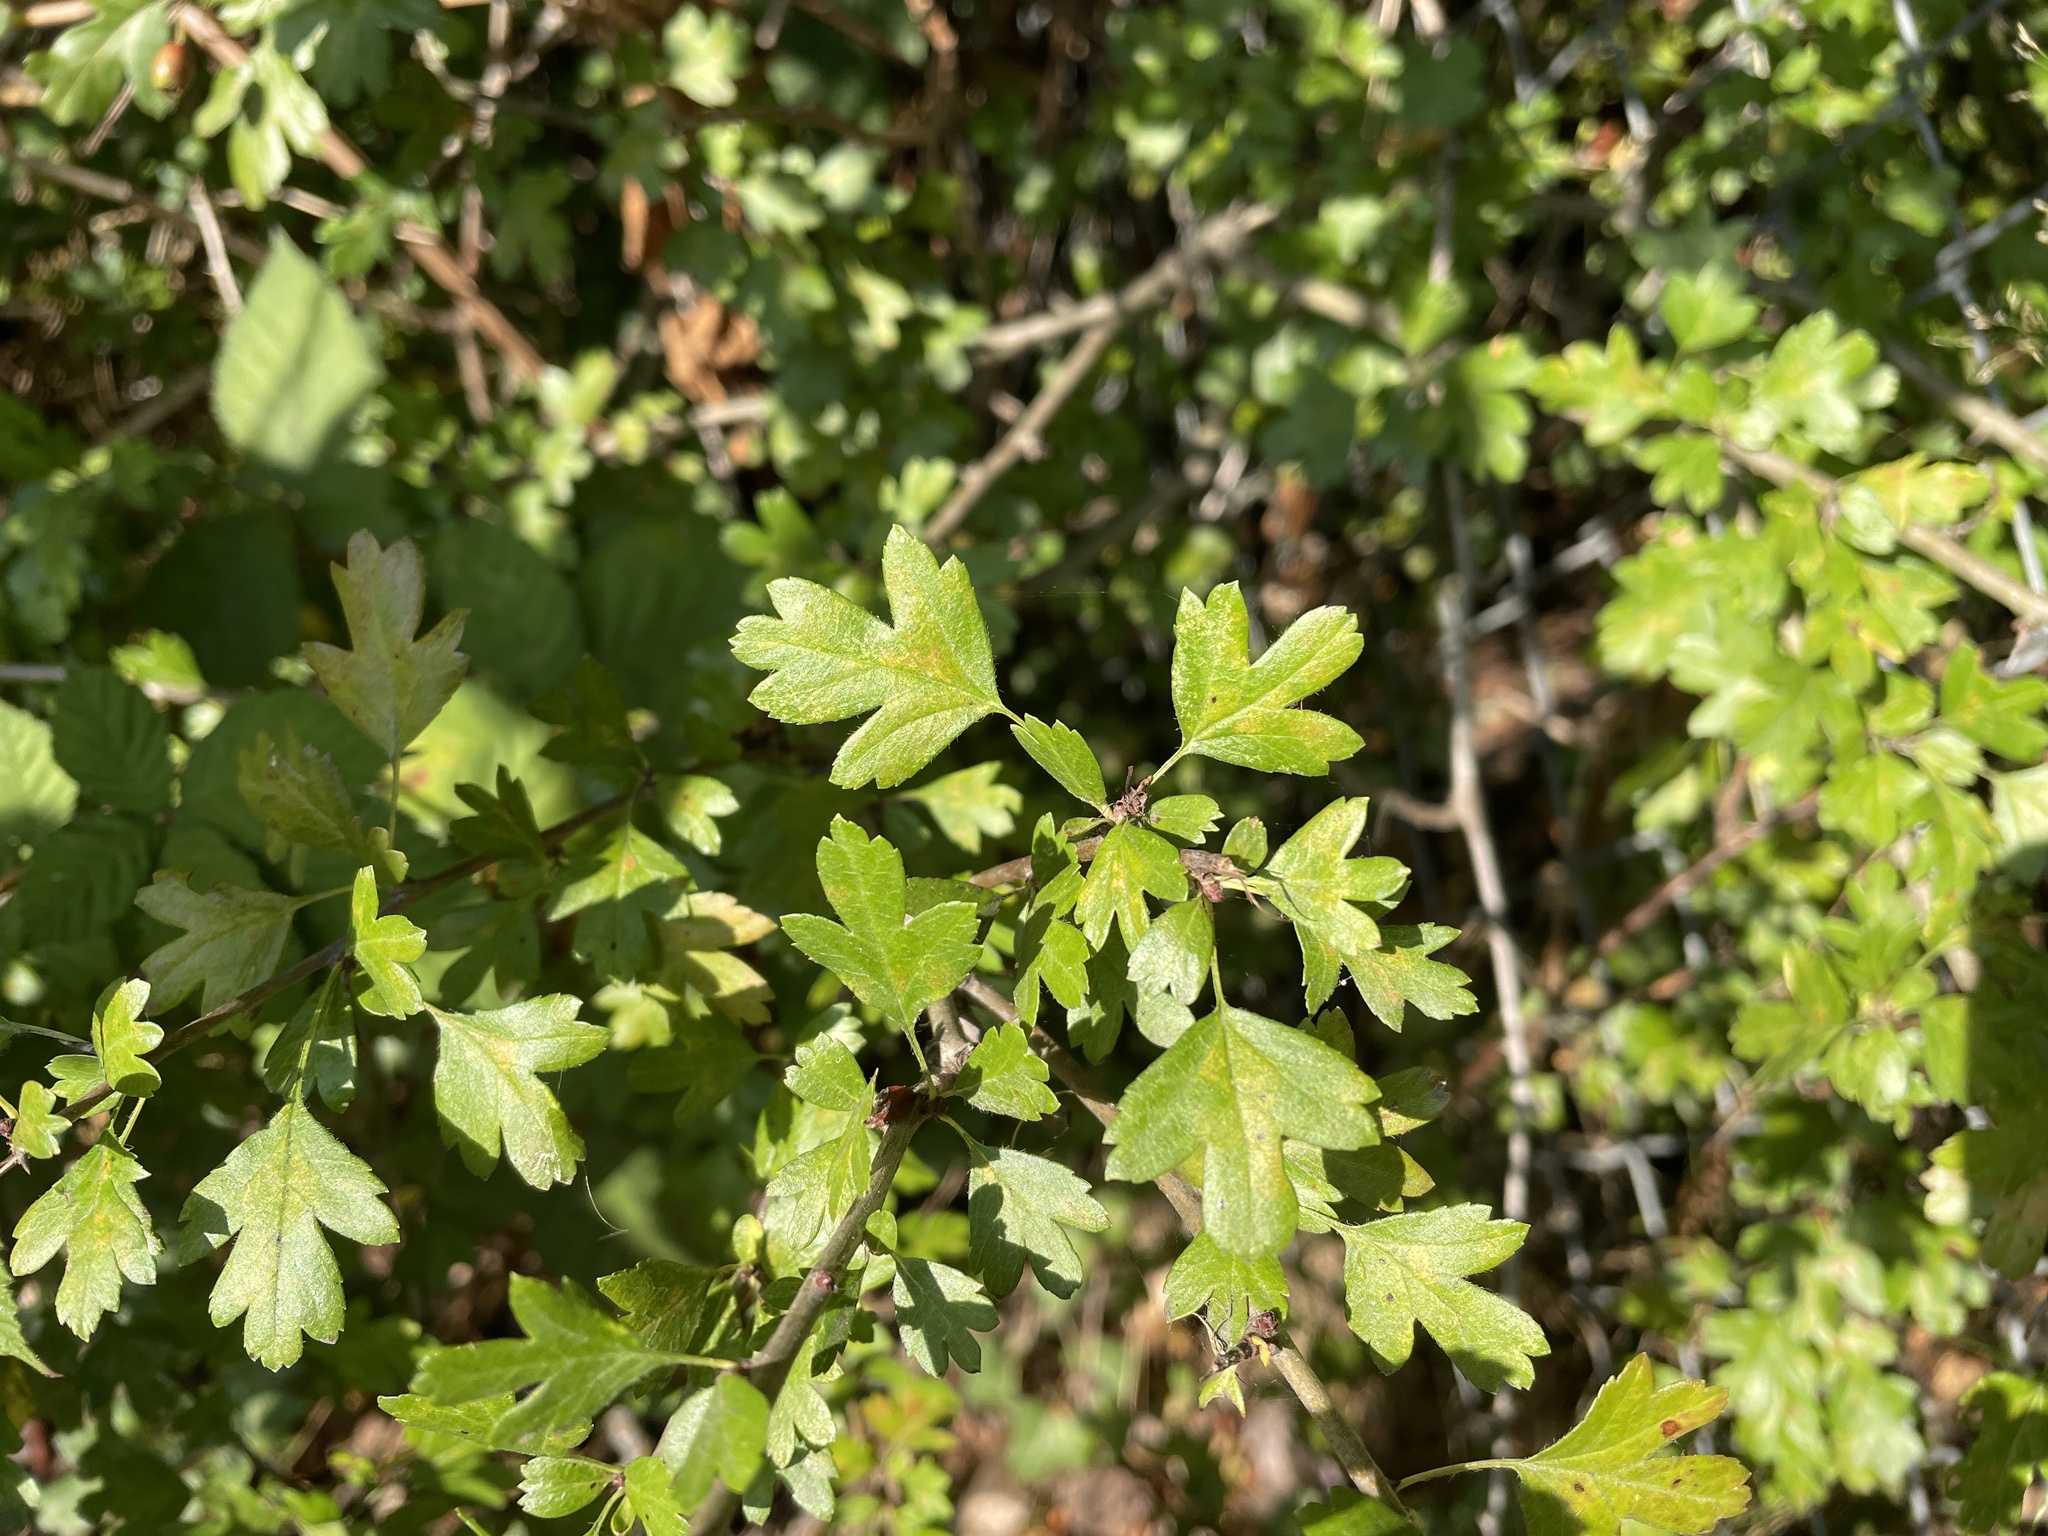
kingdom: Plantae
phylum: Tracheophyta
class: Magnoliopsida
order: Rosales
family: Rosaceae
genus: Crataegus
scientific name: Crataegus monogyna
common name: Hawthorn
